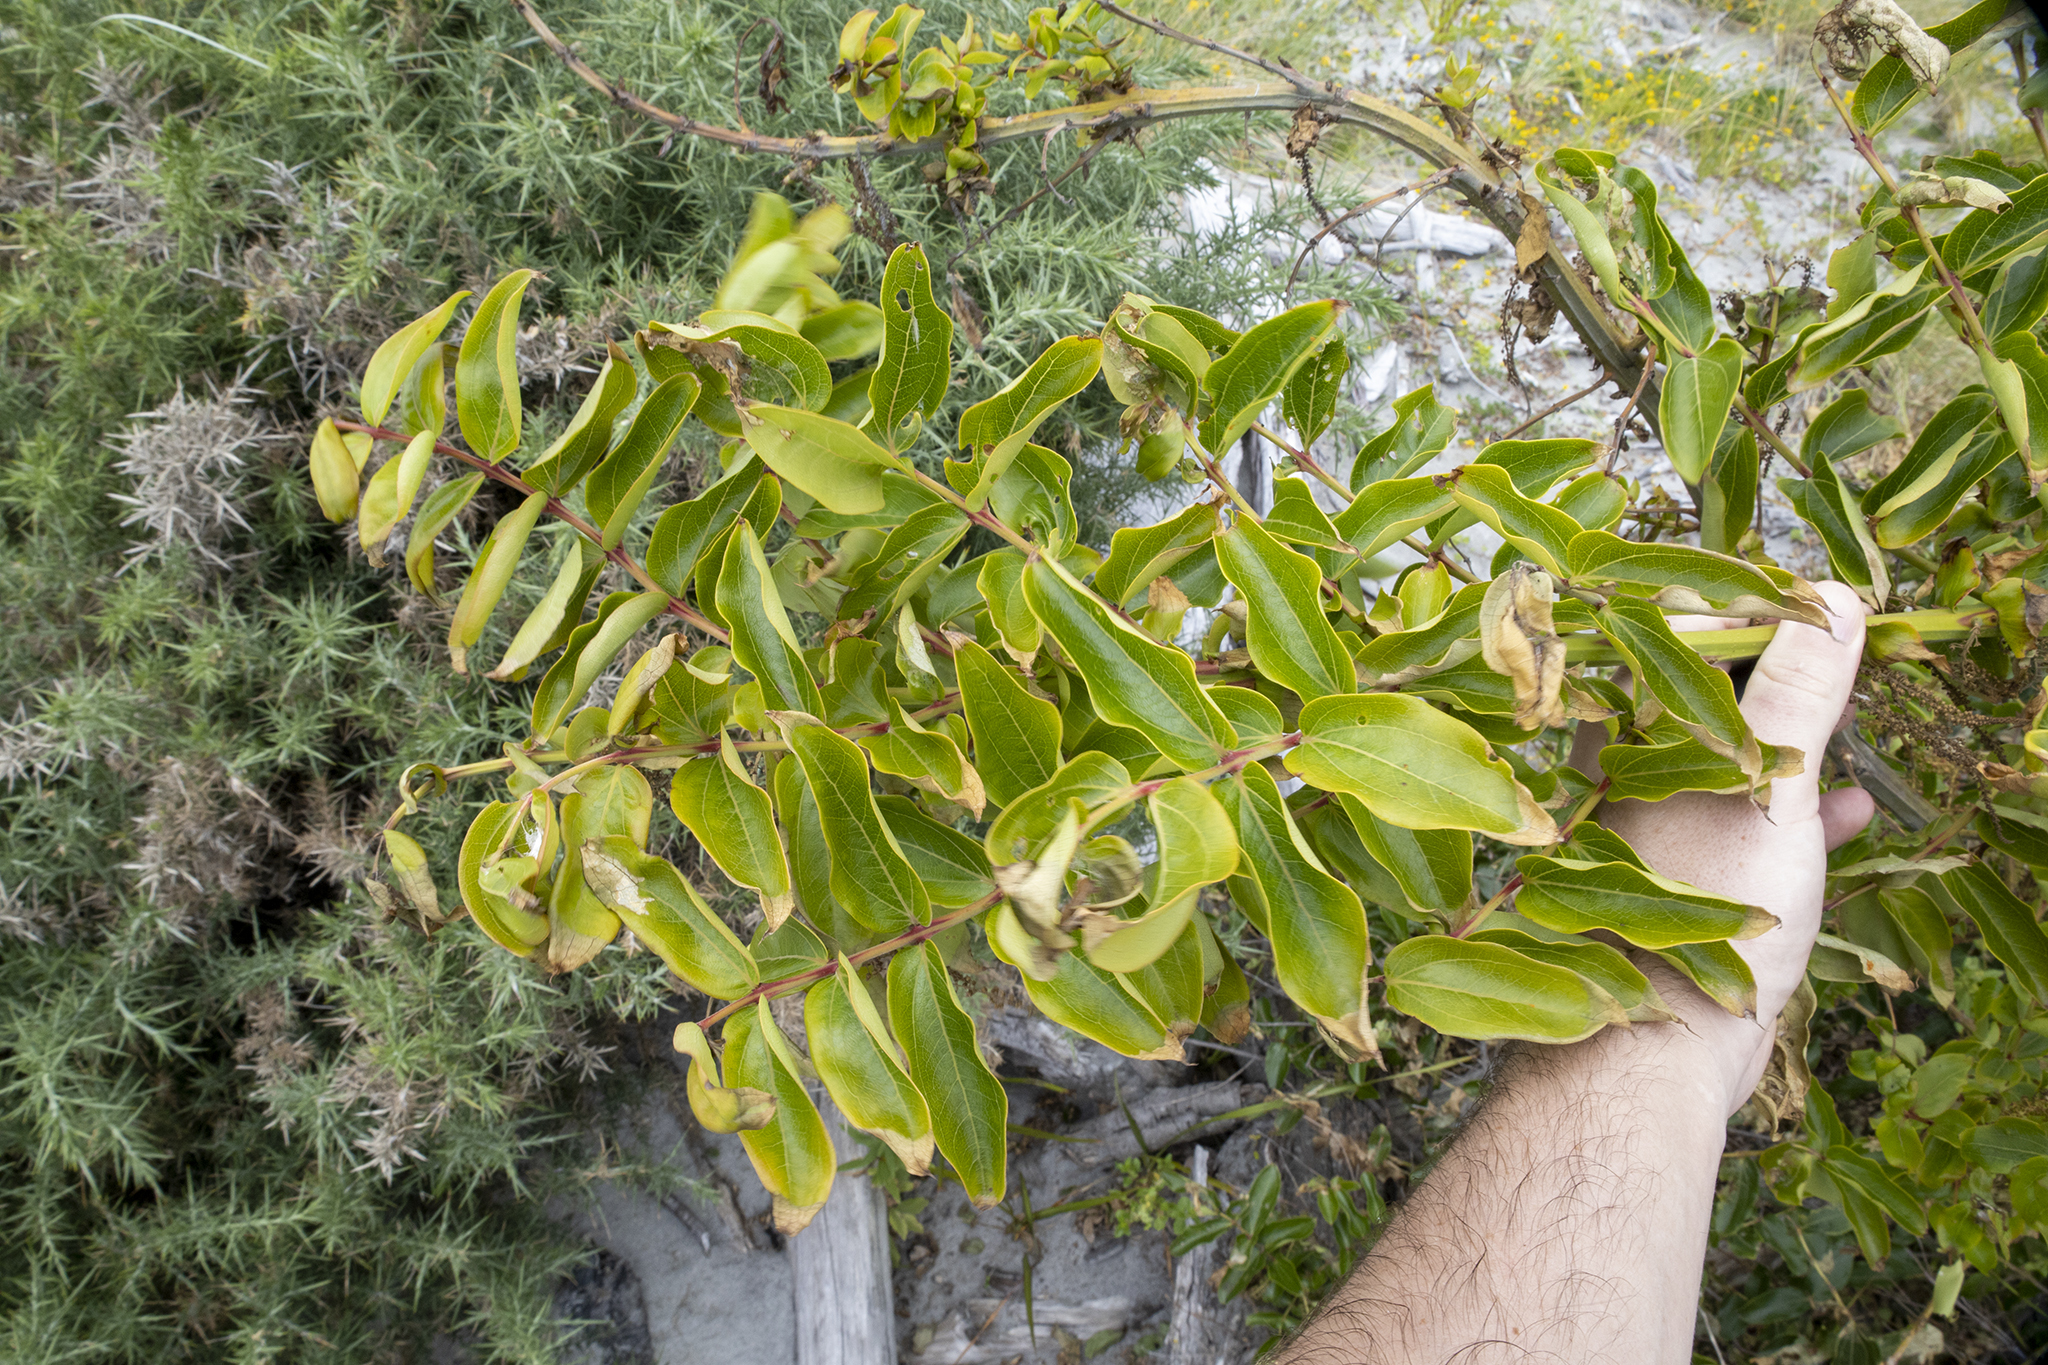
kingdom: Plantae
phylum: Tracheophyta
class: Magnoliopsida
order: Cucurbitales
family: Coriariaceae
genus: Coriaria
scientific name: Coriaria arborea
